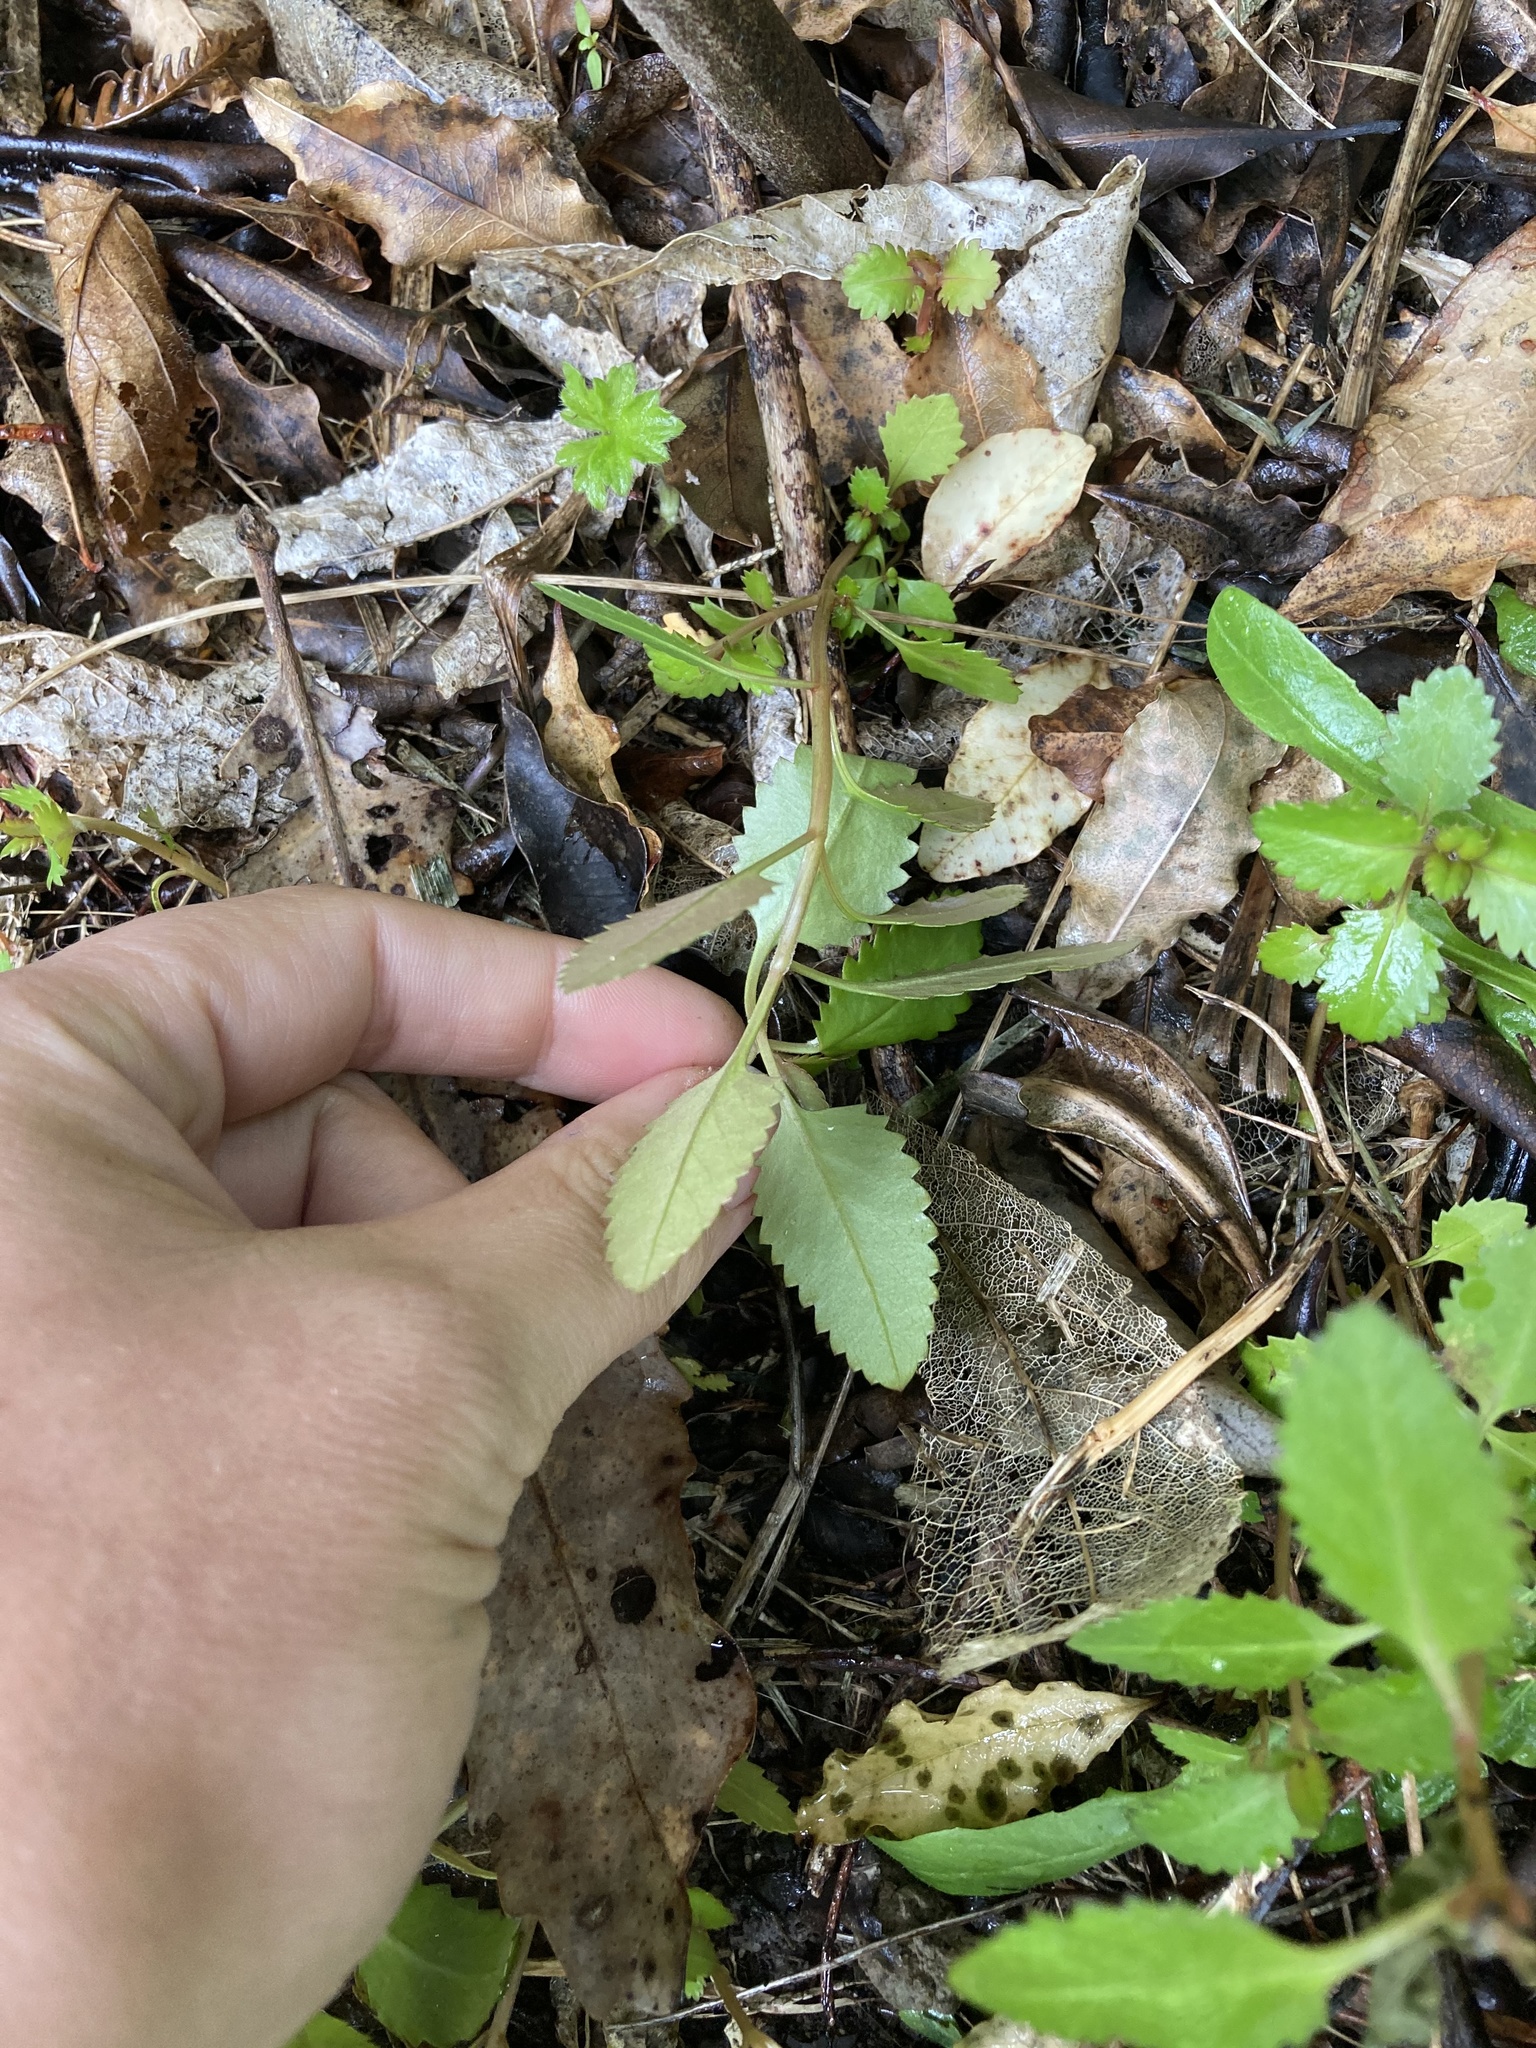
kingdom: Plantae
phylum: Tracheophyta
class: Magnoliopsida
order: Saxifragales
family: Haloragaceae
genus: Haloragis
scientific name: Haloragis erecta
